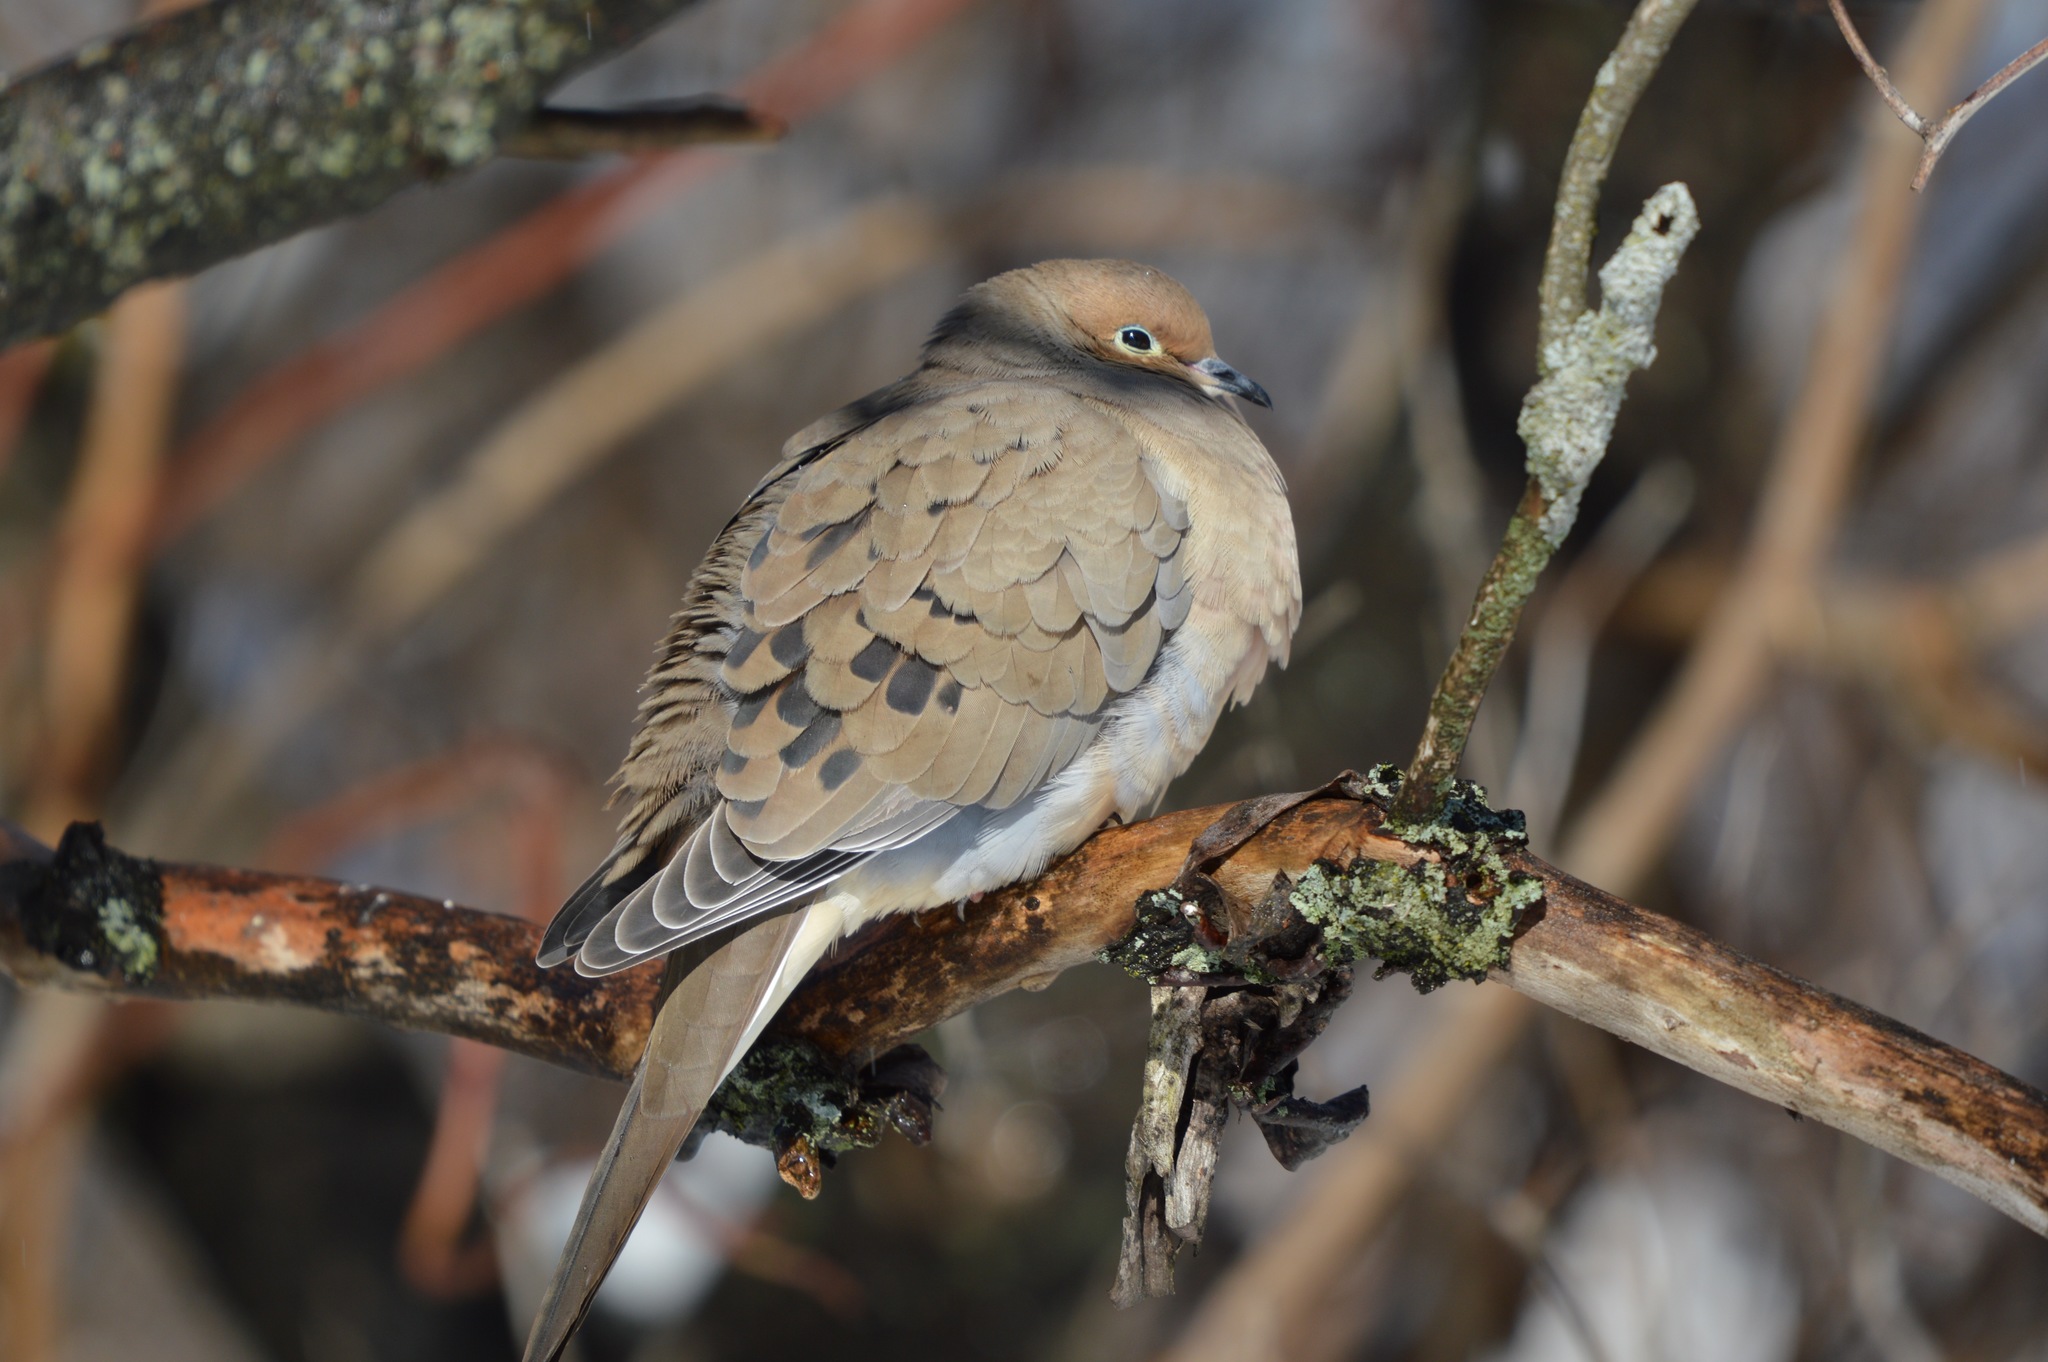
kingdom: Animalia
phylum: Chordata
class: Aves
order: Columbiformes
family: Columbidae
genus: Zenaida
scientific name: Zenaida macroura
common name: Mourning dove
